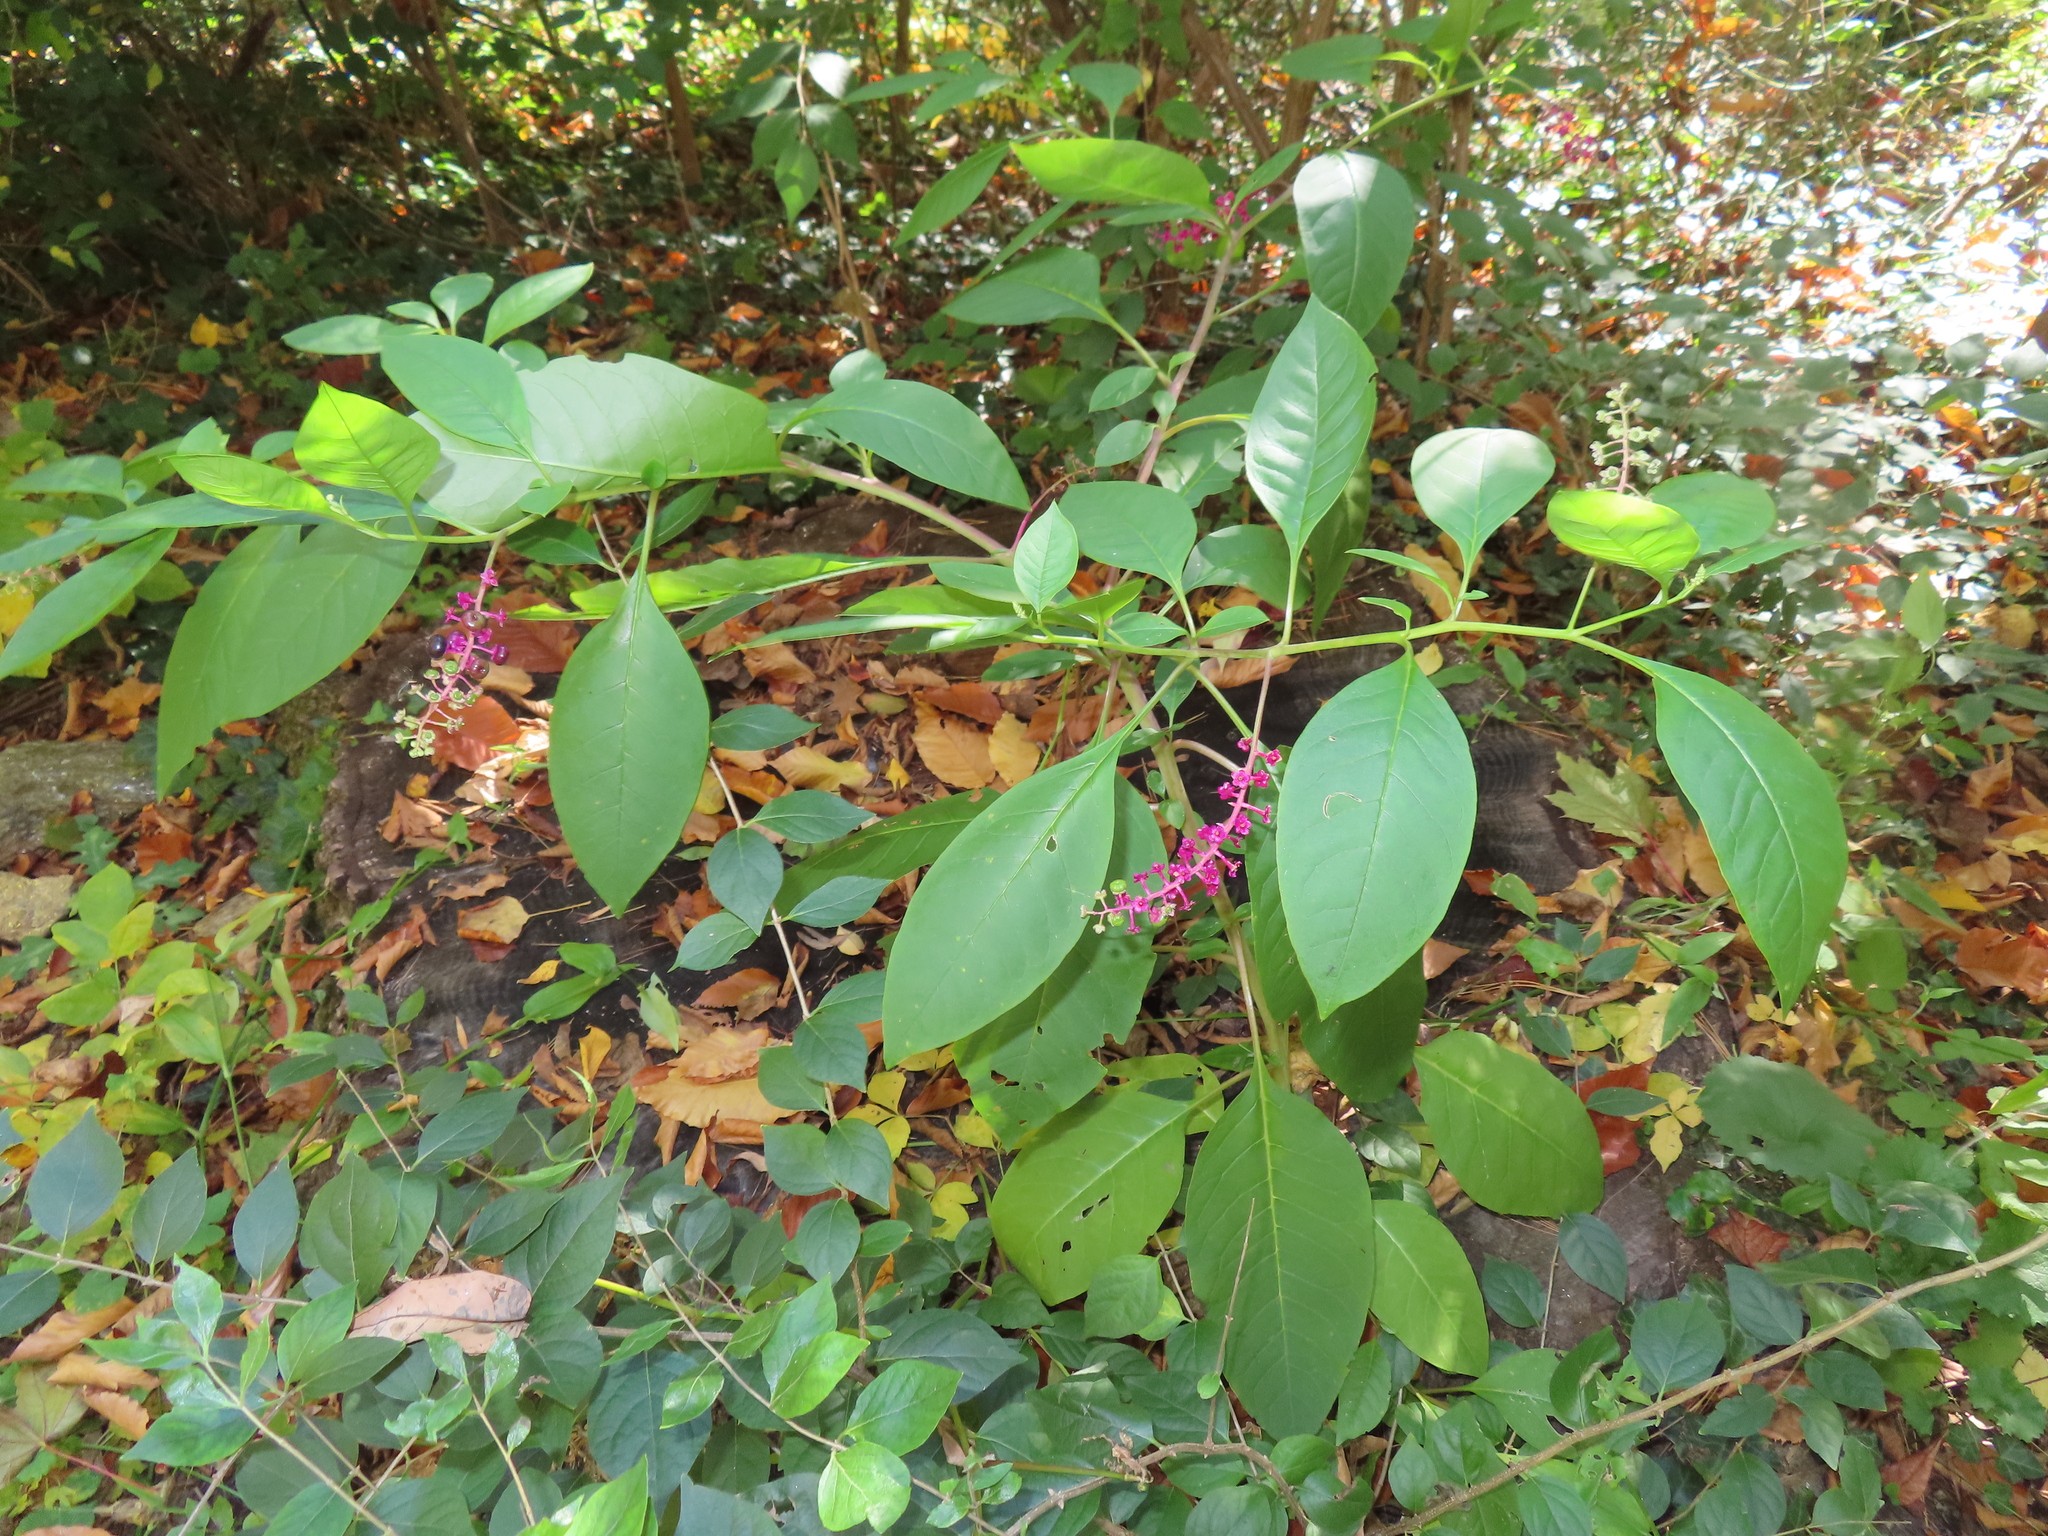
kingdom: Plantae
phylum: Tracheophyta
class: Magnoliopsida
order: Caryophyllales
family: Phytolaccaceae
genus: Phytolacca
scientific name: Phytolacca americana
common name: American pokeweed
